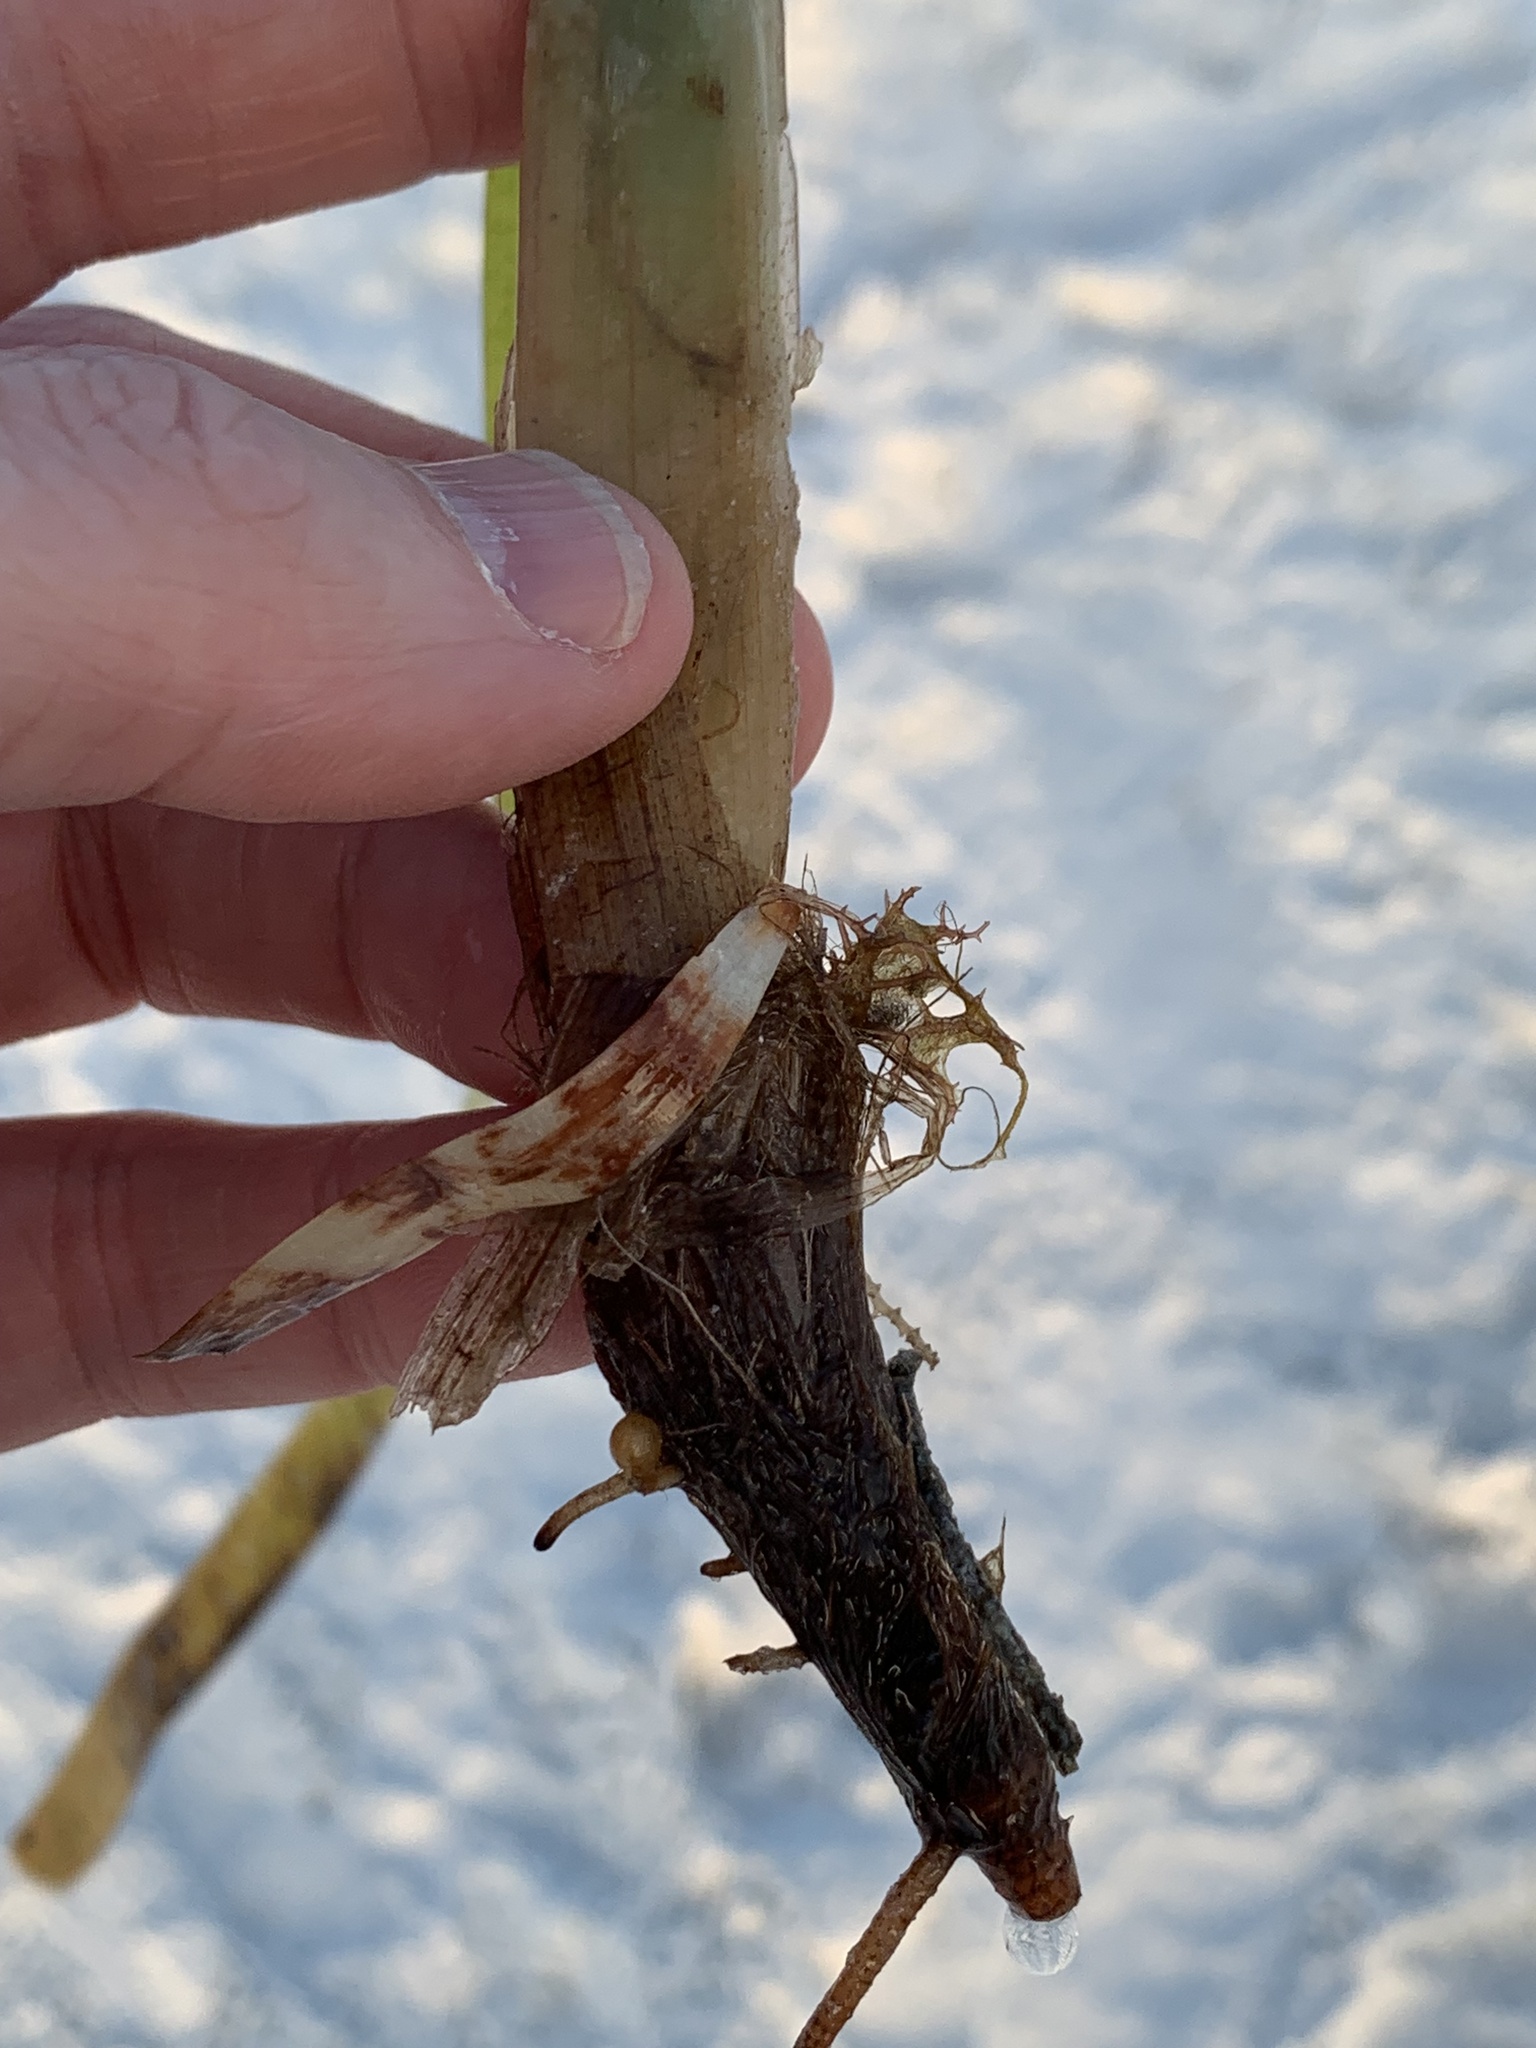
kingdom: Plantae
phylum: Tracheophyta
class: Liliopsida
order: Alismatales
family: Hydrocharitaceae
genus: Thalassia
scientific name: Thalassia testudinum
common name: Species code: tt
